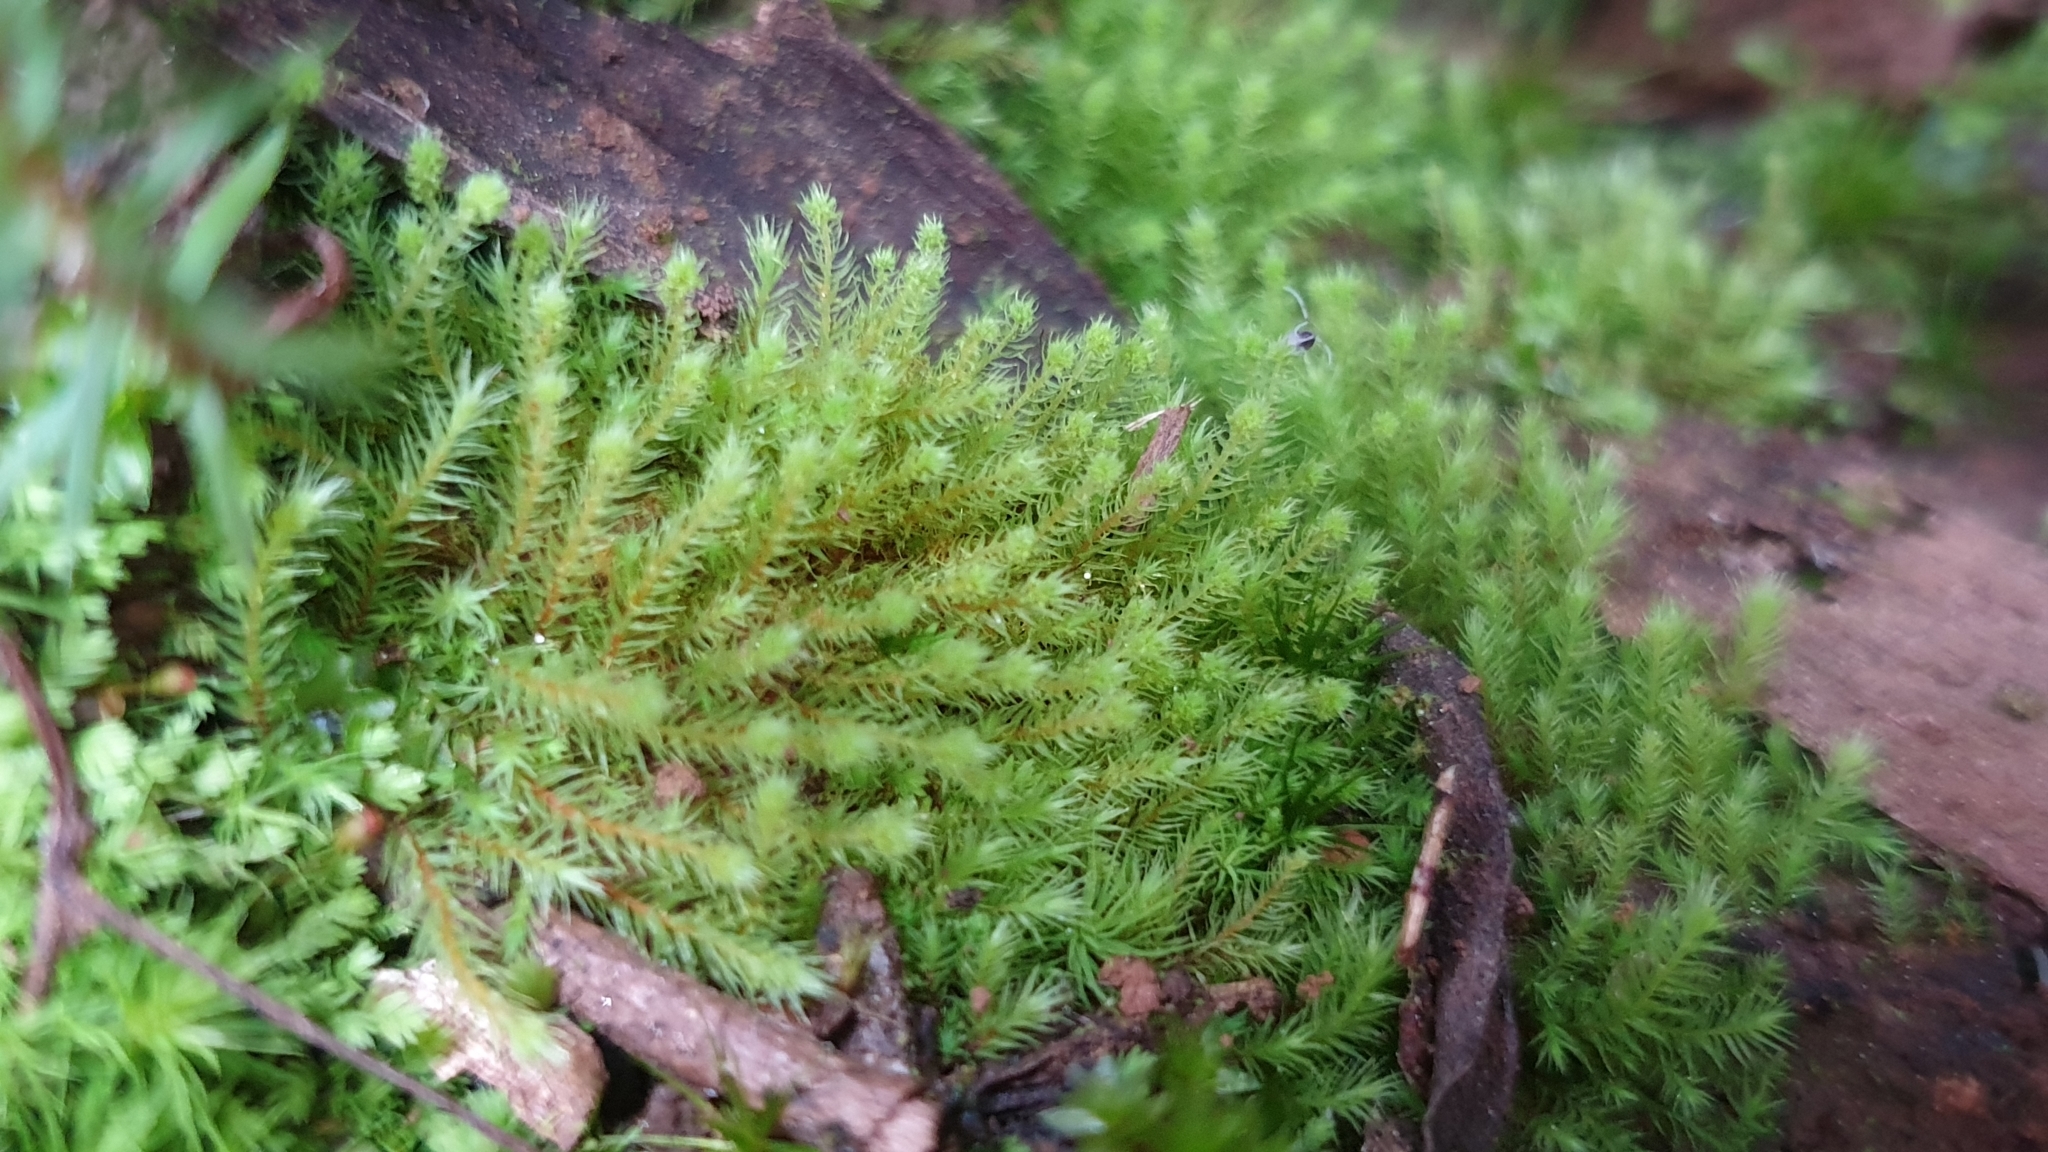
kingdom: Plantae
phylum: Bryophyta
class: Bryopsida
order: Bartramiales
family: Bartramiaceae
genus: Philonotis
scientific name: Philonotis tenuis
